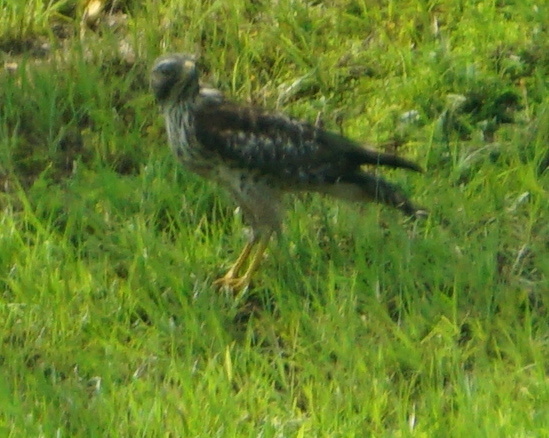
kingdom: Animalia
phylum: Chordata
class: Aves
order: Accipitriformes
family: Accipitridae
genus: Buteo
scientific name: Buteo lineatus
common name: Red-shouldered hawk
